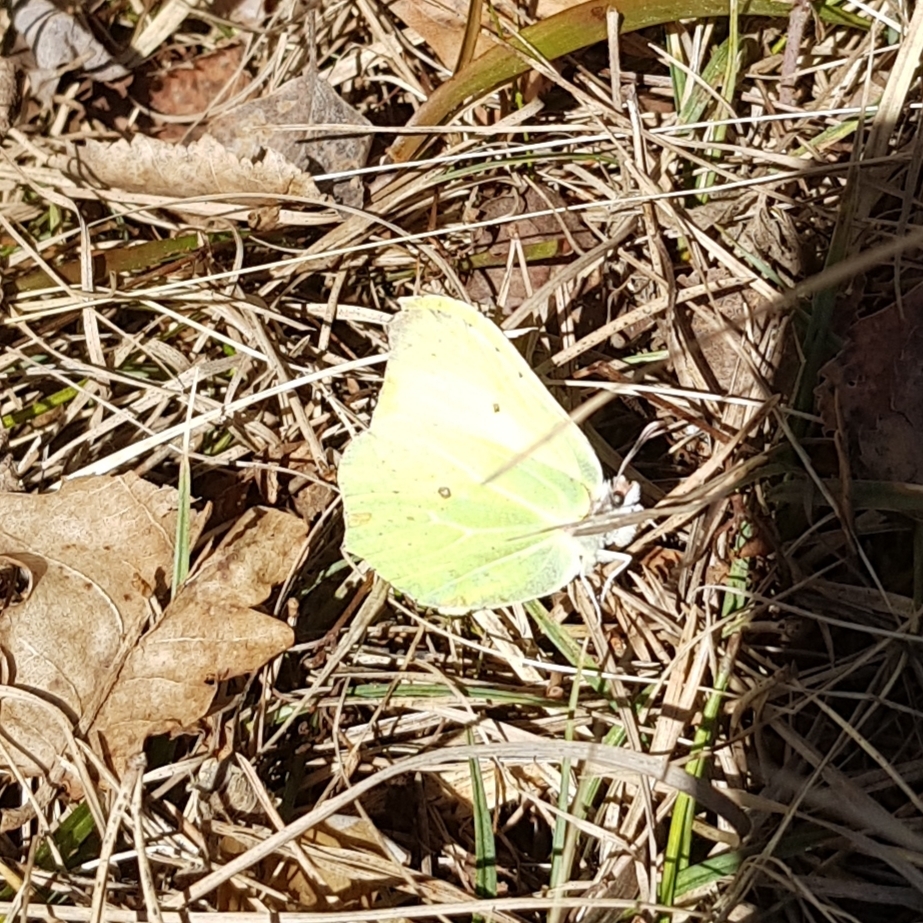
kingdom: Animalia
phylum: Arthropoda
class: Insecta
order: Lepidoptera
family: Pieridae
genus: Gonepteryx
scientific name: Gonepteryx rhamni
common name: Brimstone
